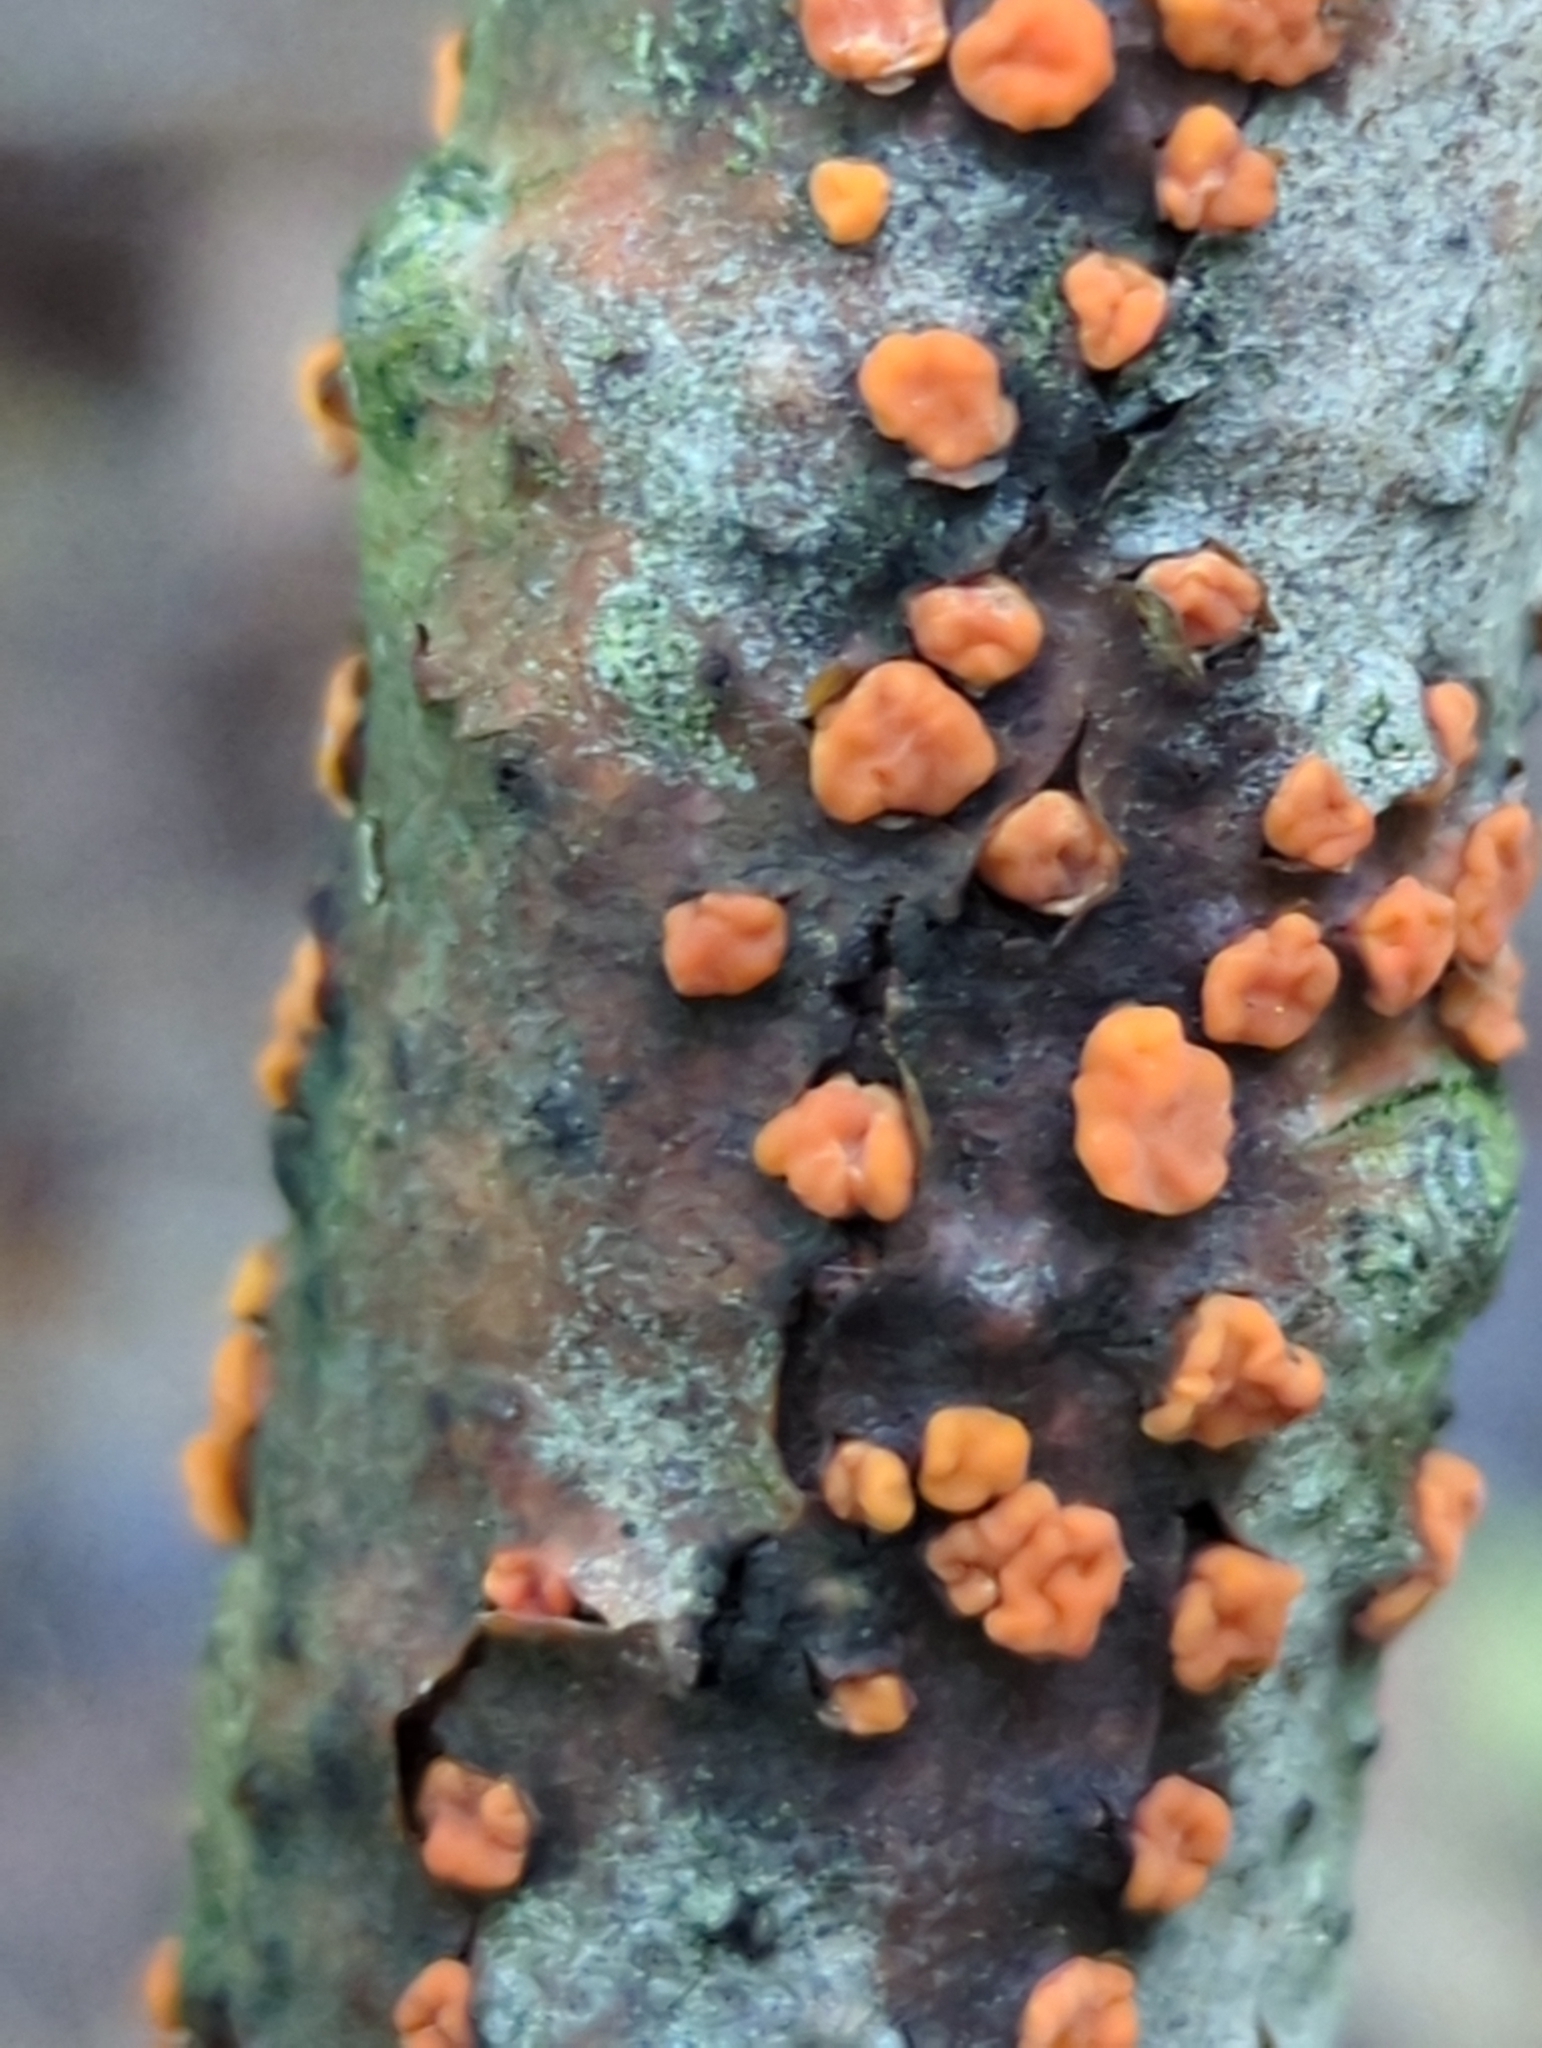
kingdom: Fungi
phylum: Basidiomycota
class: Agaricomycetes
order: Russulales
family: Peniophoraceae
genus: Peniophora
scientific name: Peniophora rufa
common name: Red tree brain fungus
